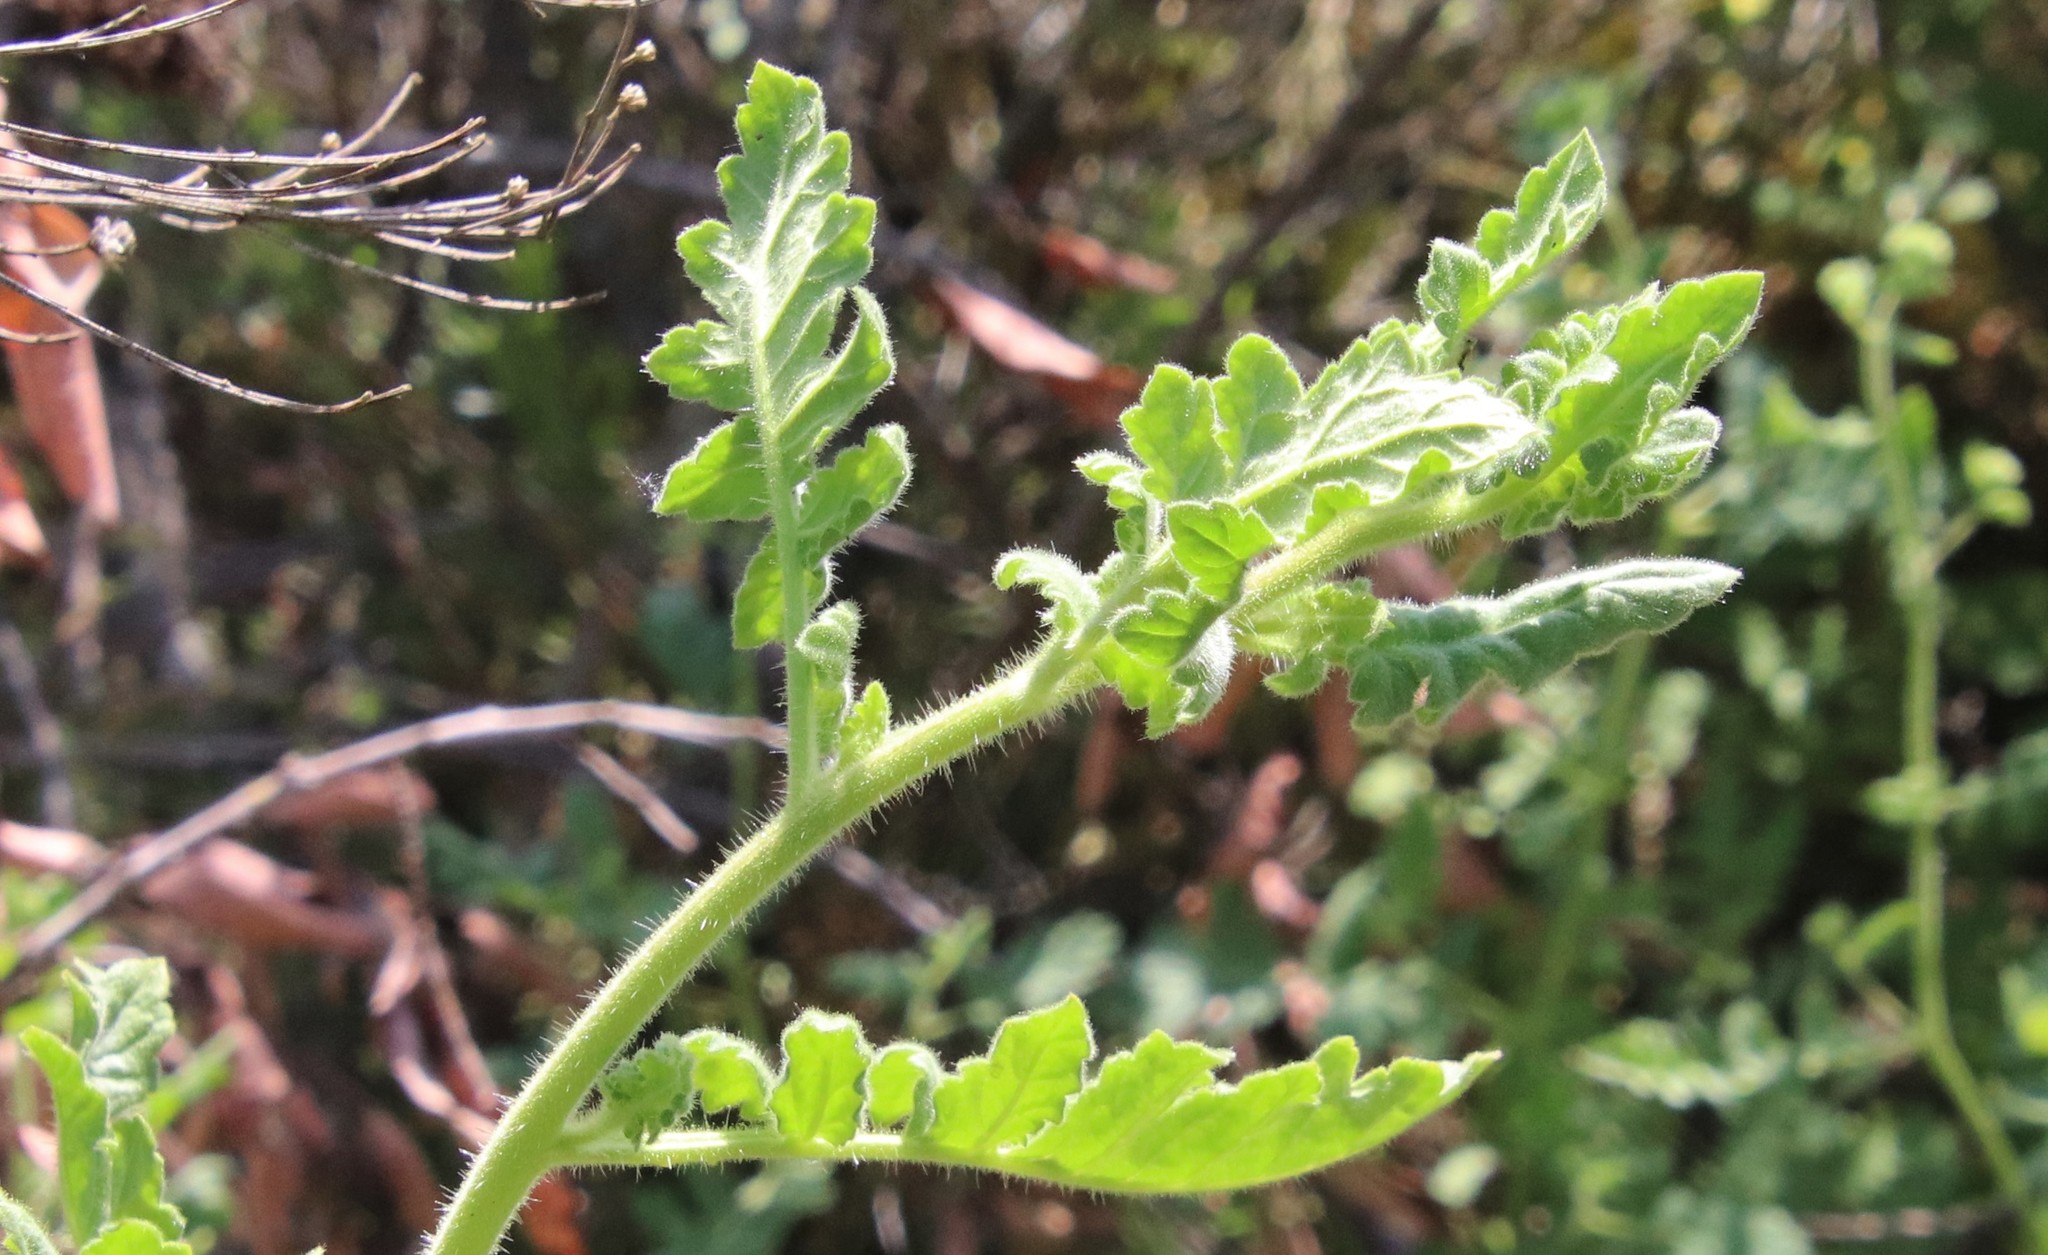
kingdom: Plantae
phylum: Tracheophyta
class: Magnoliopsida
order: Boraginales
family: Hydrophyllaceae
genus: Phacelia
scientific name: Phacelia ramosissima
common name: Branching phacelia
